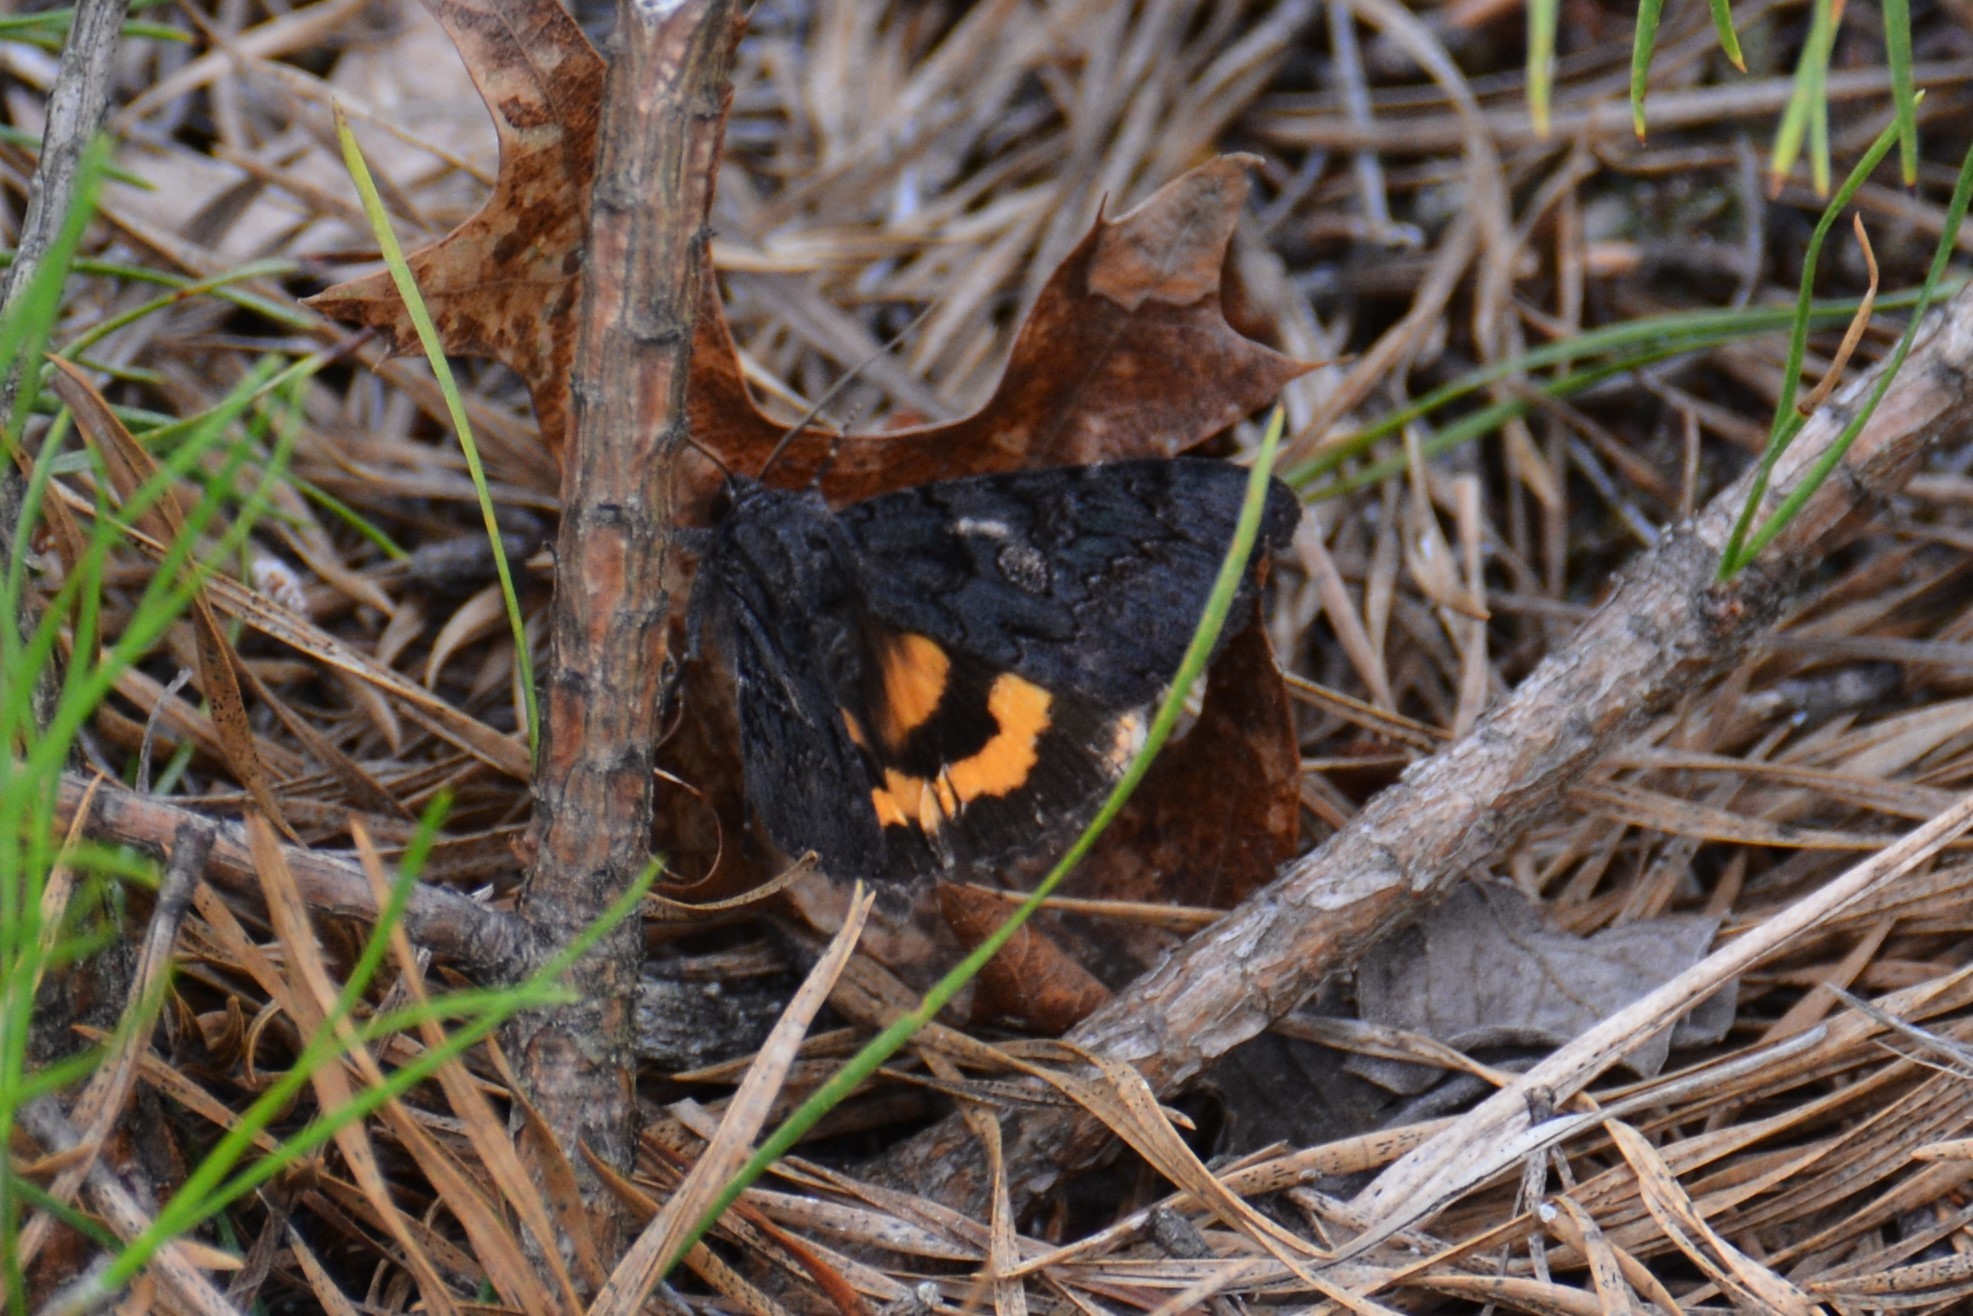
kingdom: Animalia
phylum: Arthropoda
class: Insecta
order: Lepidoptera
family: Erebidae
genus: Catocala
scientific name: Catocala antinympha
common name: Sweetfern underwing
